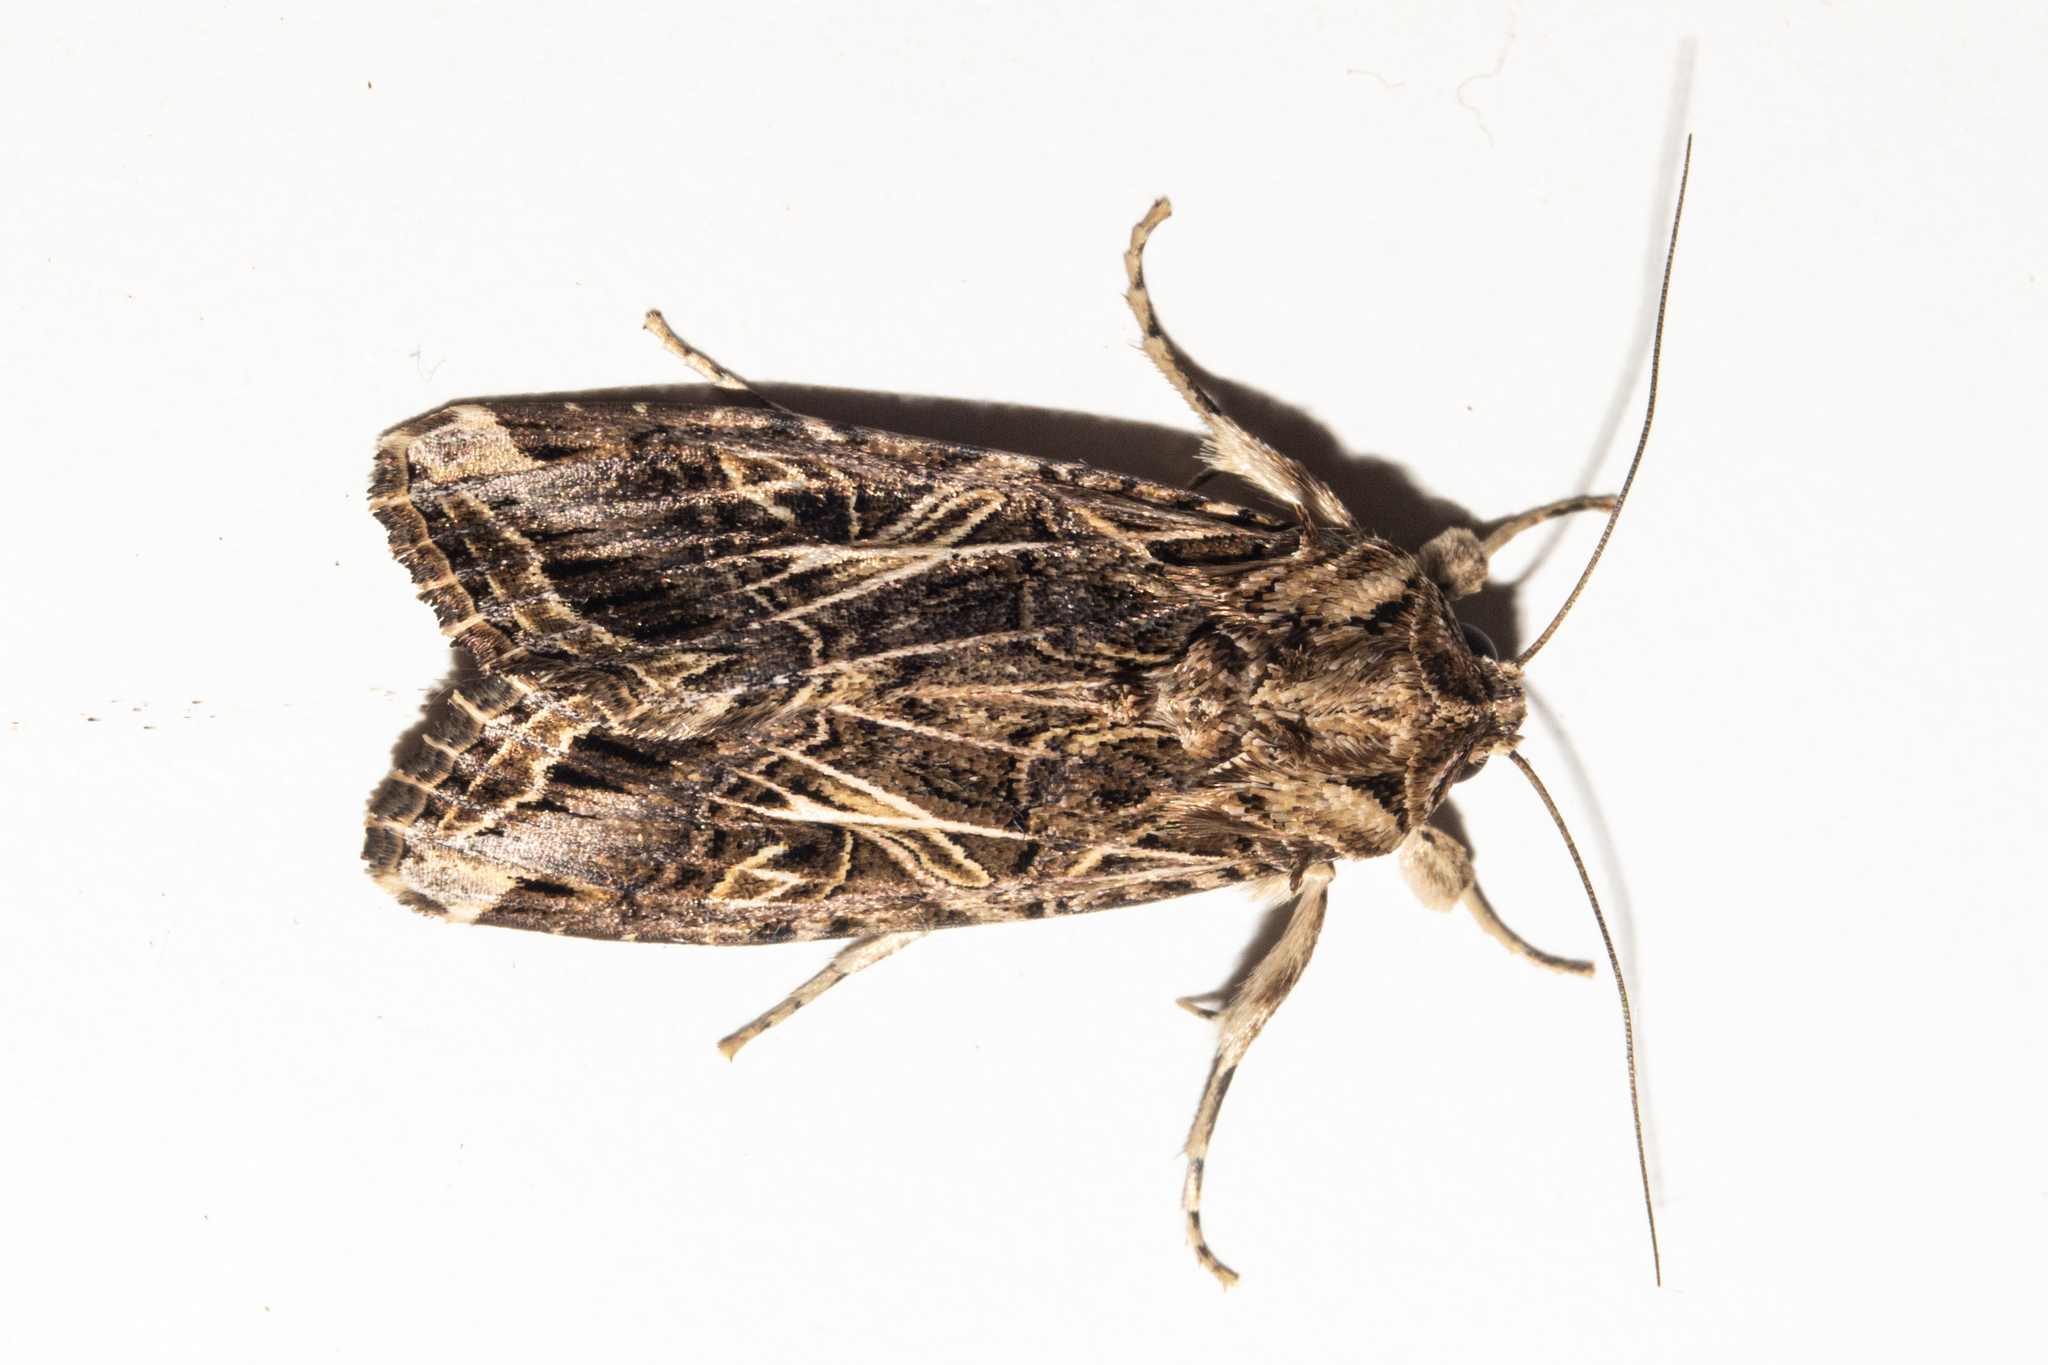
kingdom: Animalia
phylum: Arthropoda
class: Insecta
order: Lepidoptera
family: Noctuidae
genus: Spodoptera
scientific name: Spodoptera litura
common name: Asian cotton leafworm
